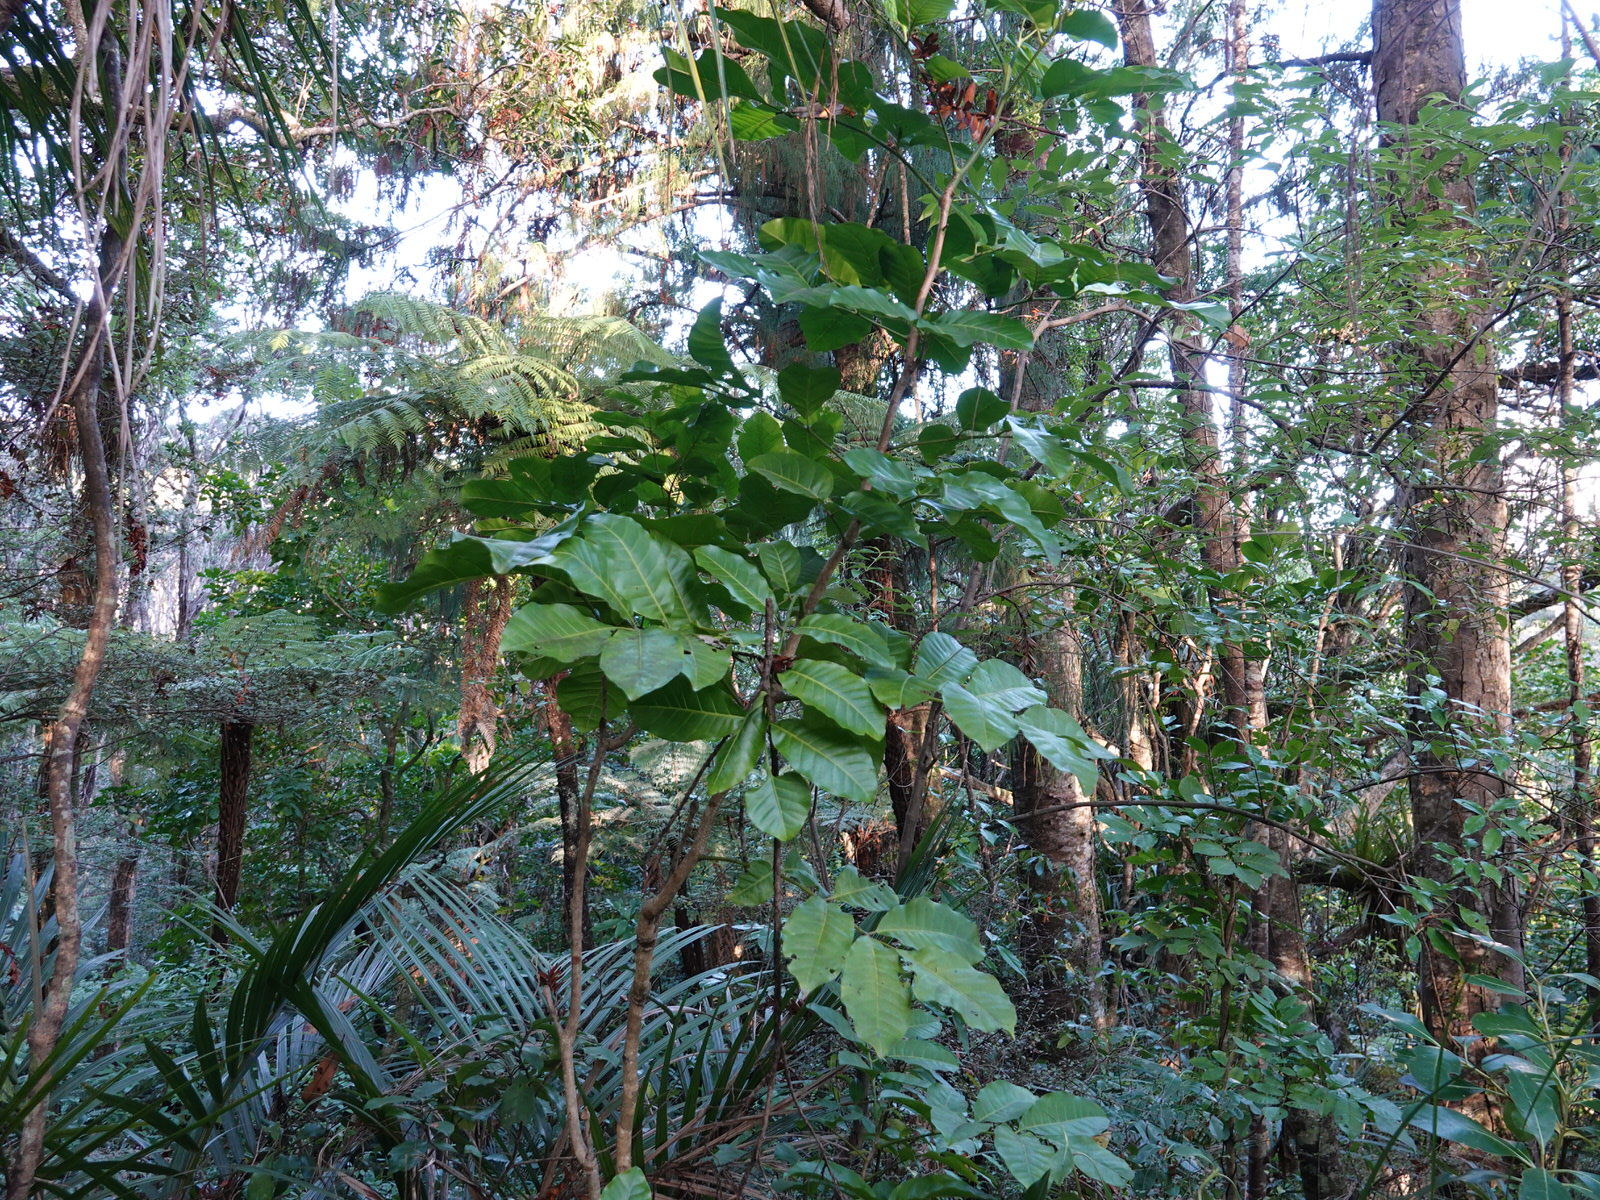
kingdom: Plantae
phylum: Tracheophyta
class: Magnoliopsida
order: Sapindales
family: Meliaceae
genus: Didymocheton
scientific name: Didymocheton spectabilis
